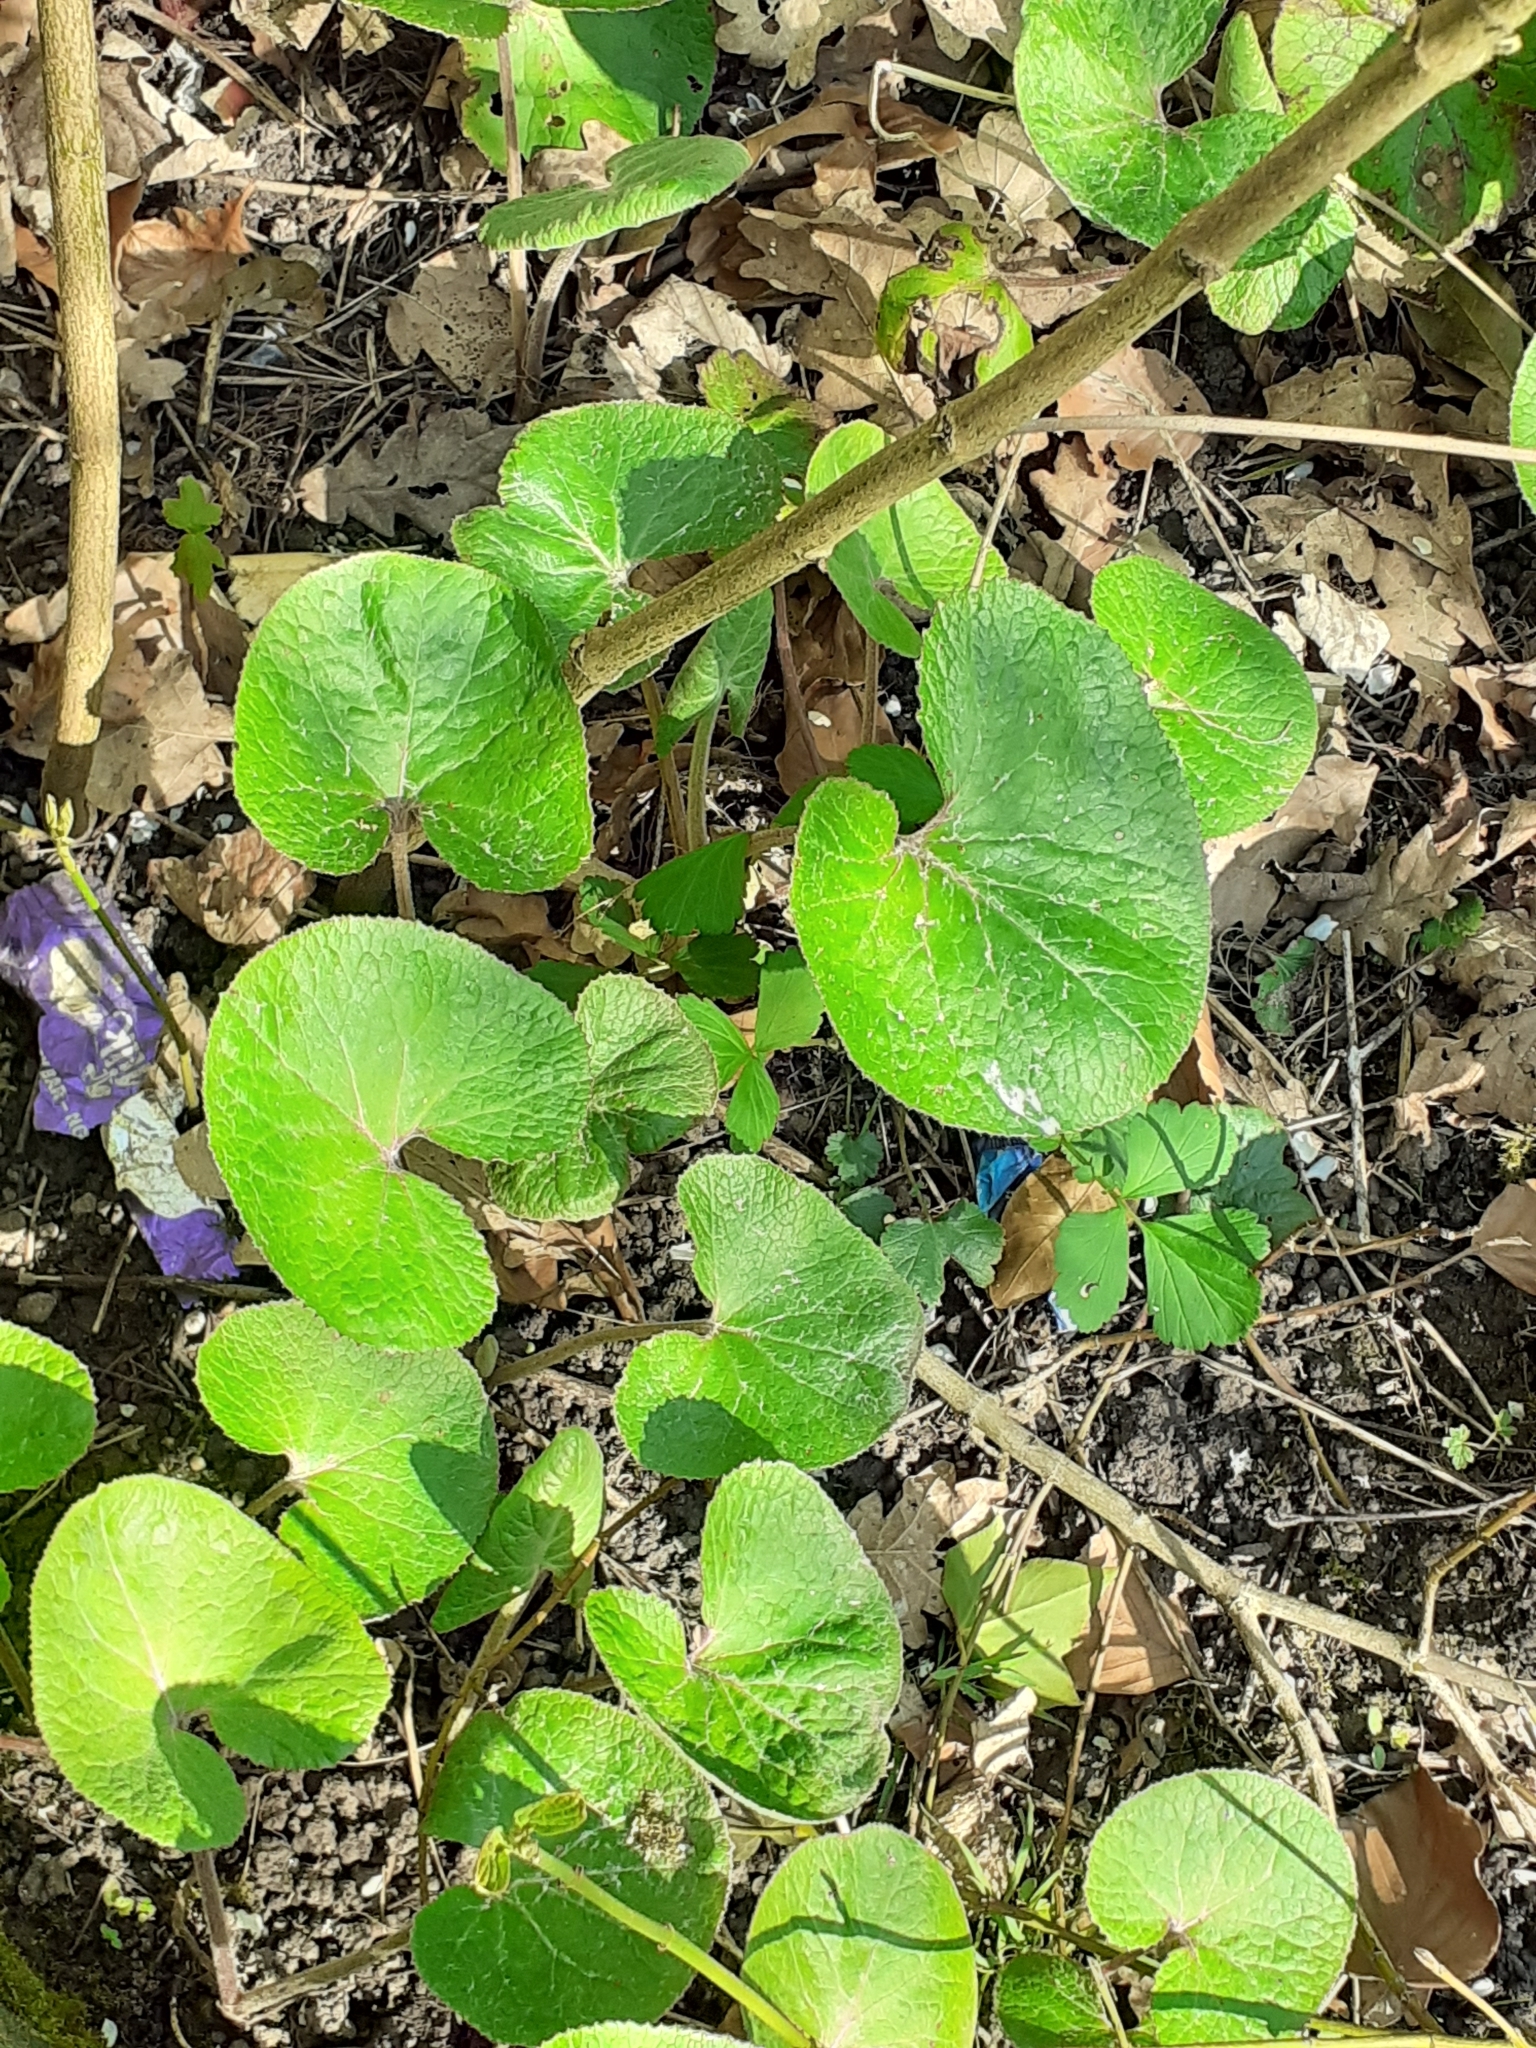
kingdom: Plantae
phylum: Tracheophyta
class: Magnoliopsida
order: Asterales
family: Asteraceae
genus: Petasites
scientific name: Petasites pyrenaicus
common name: Winter heliotrope
